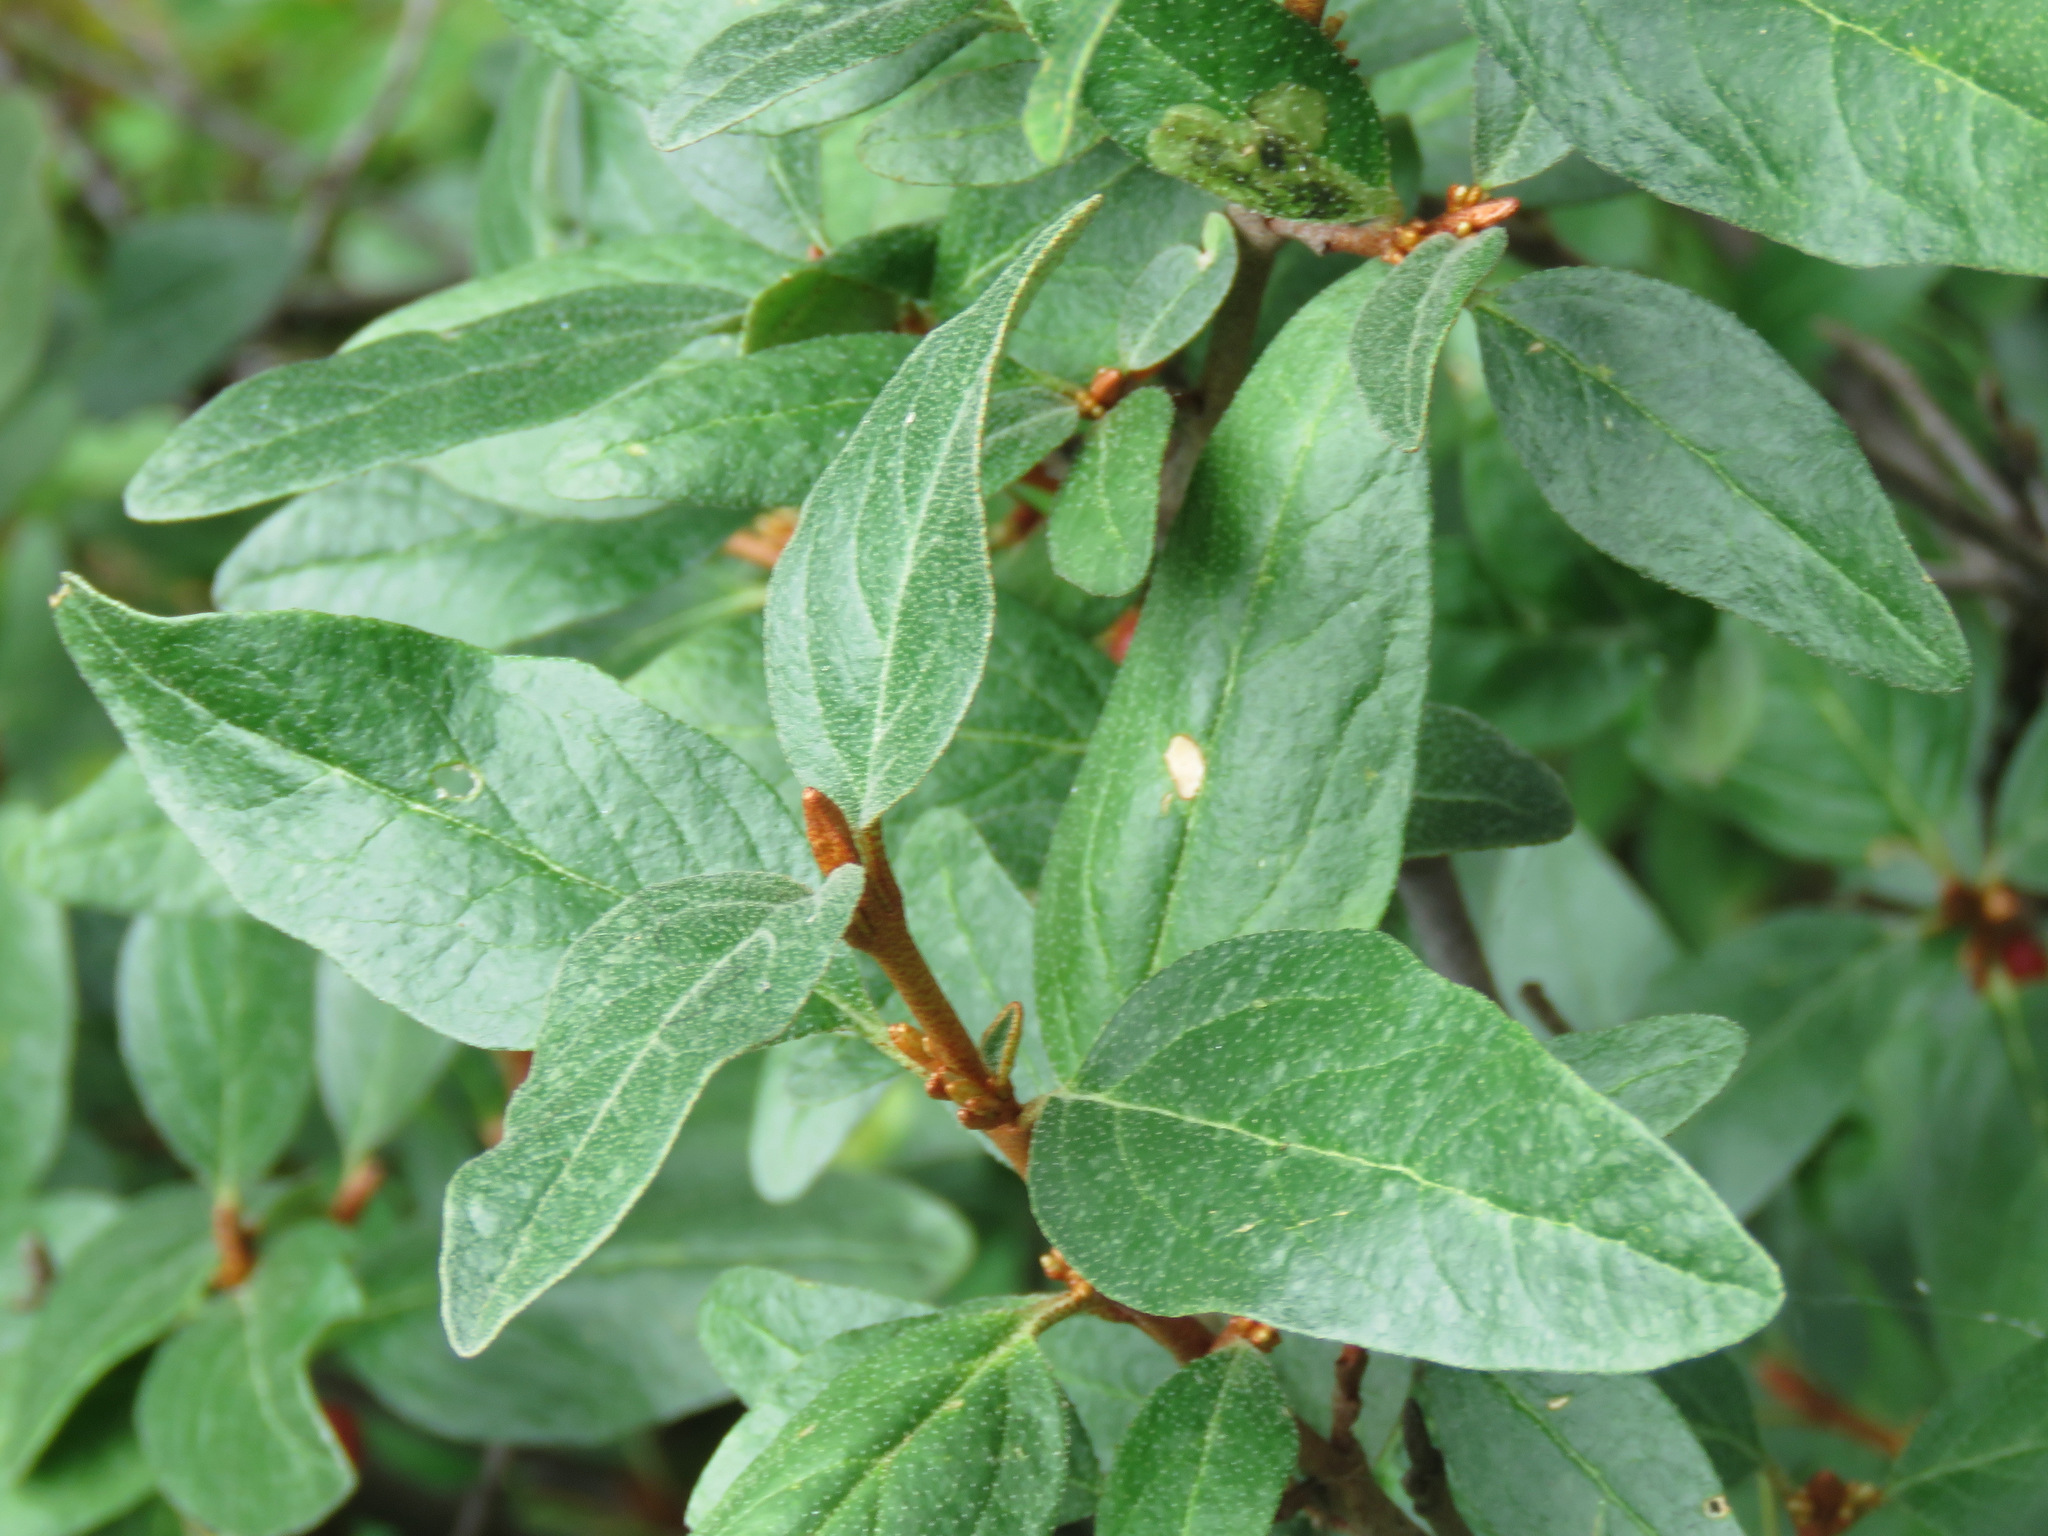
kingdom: Plantae
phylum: Tracheophyta
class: Magnoliopsida
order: Rosales
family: Elaeagnaceae
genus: Shepherdia
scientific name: Shepherdia canadensis
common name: Soapberry
